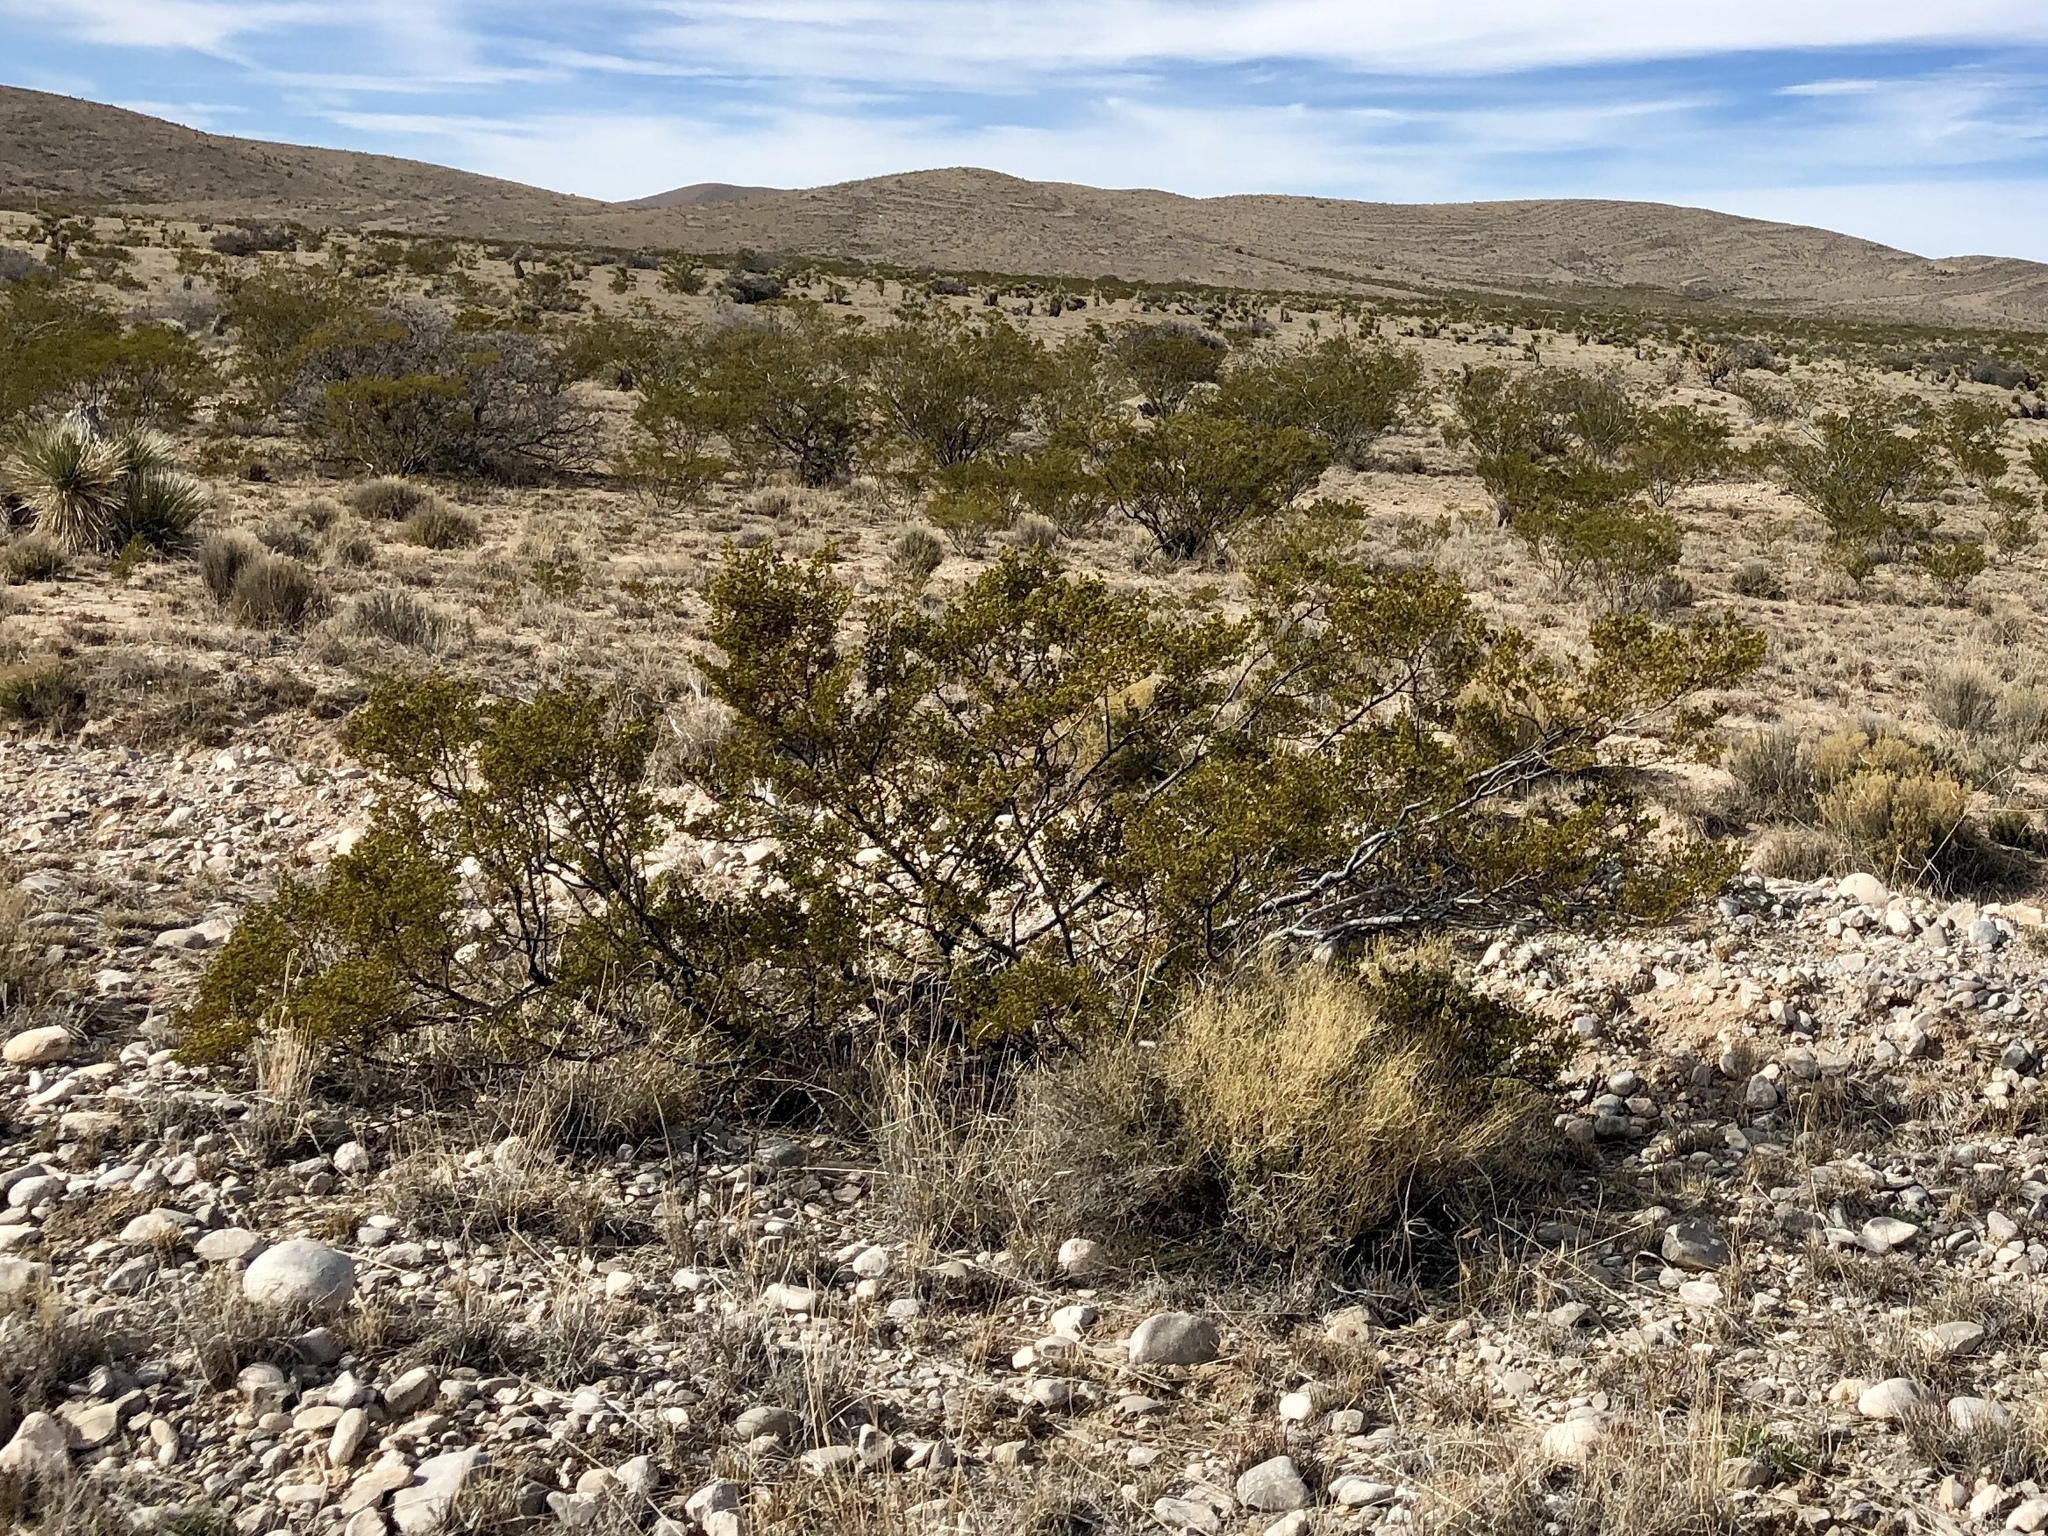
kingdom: Plantae
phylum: Tracheophyta
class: Magnoliopsida
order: Zygophyllales
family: Zygophyllaceae
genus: Larrea
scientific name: Larrea tridentata
